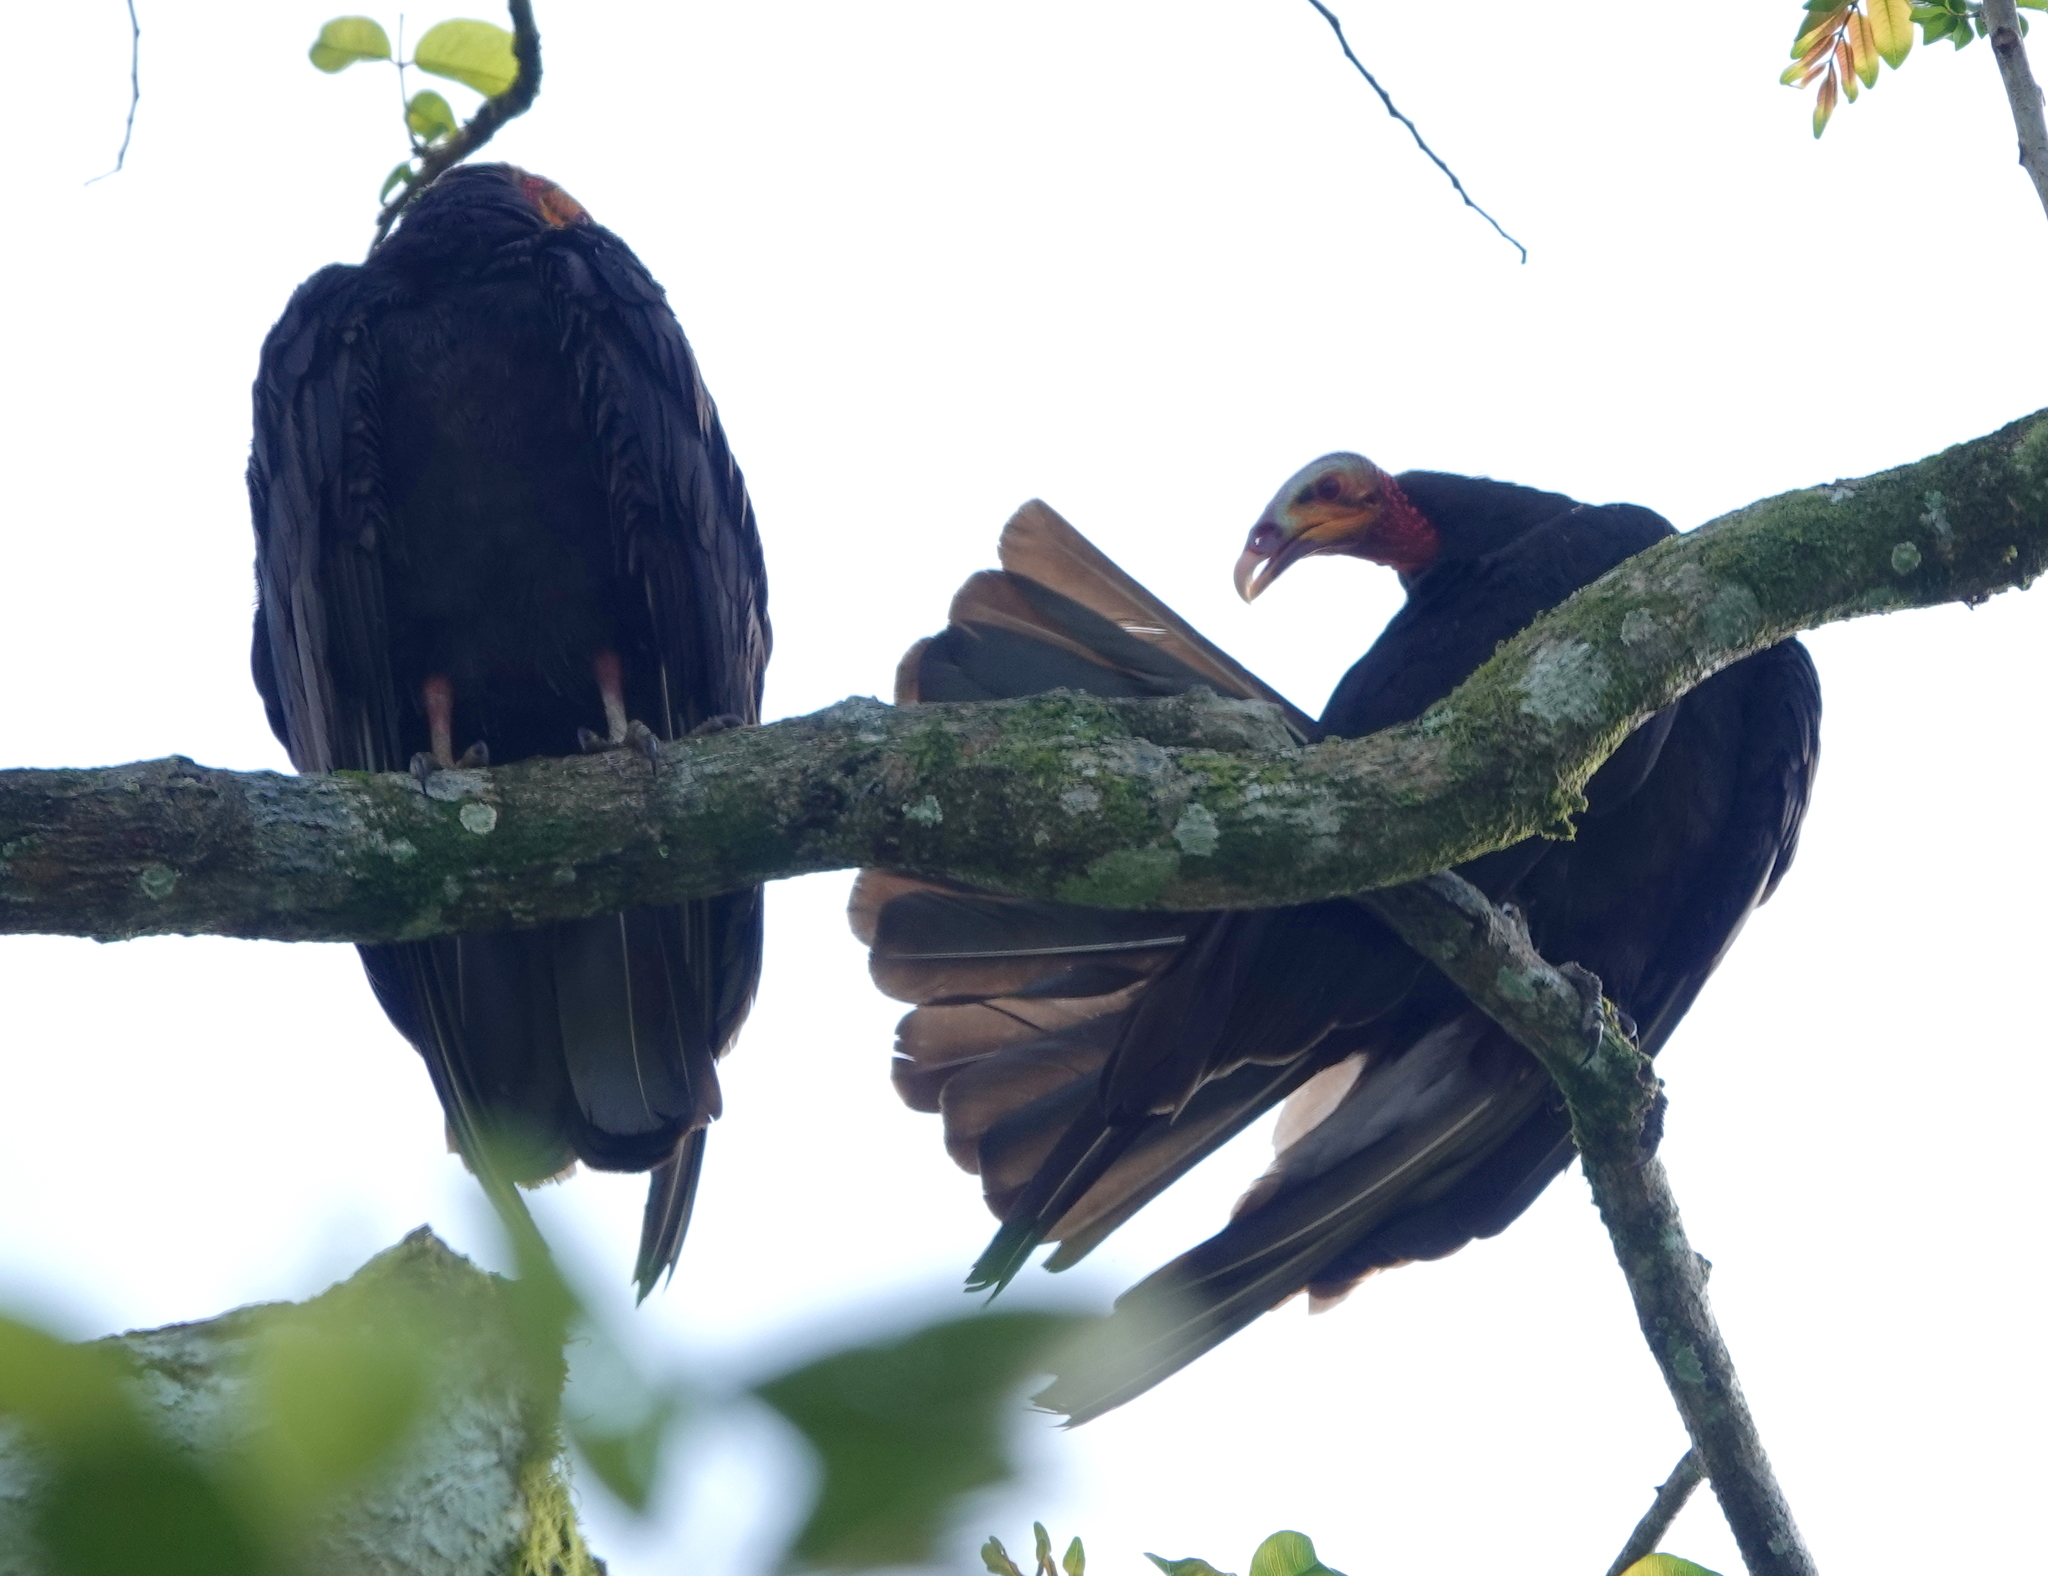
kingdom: Animalia
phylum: Chordata
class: Aves
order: Accipitriformes
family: Cathartidae
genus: Cathartes
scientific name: Cathartes burrovianus
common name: Lesser yellow-headed vulture
